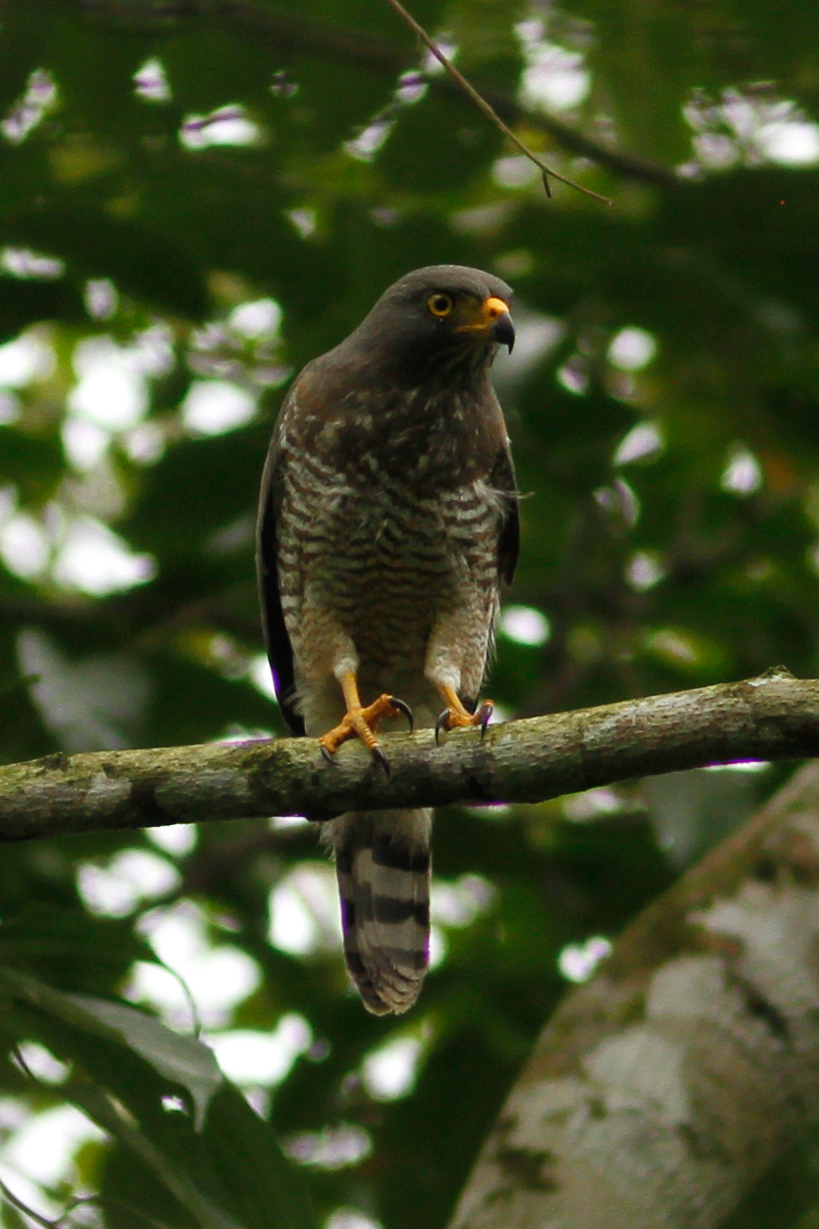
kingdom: Animalia
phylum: Chordata
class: Aves
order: Accipitriformes
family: Accipitridae
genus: Rupornis
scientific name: Rupornis magnirostris
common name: Roadside hawk
